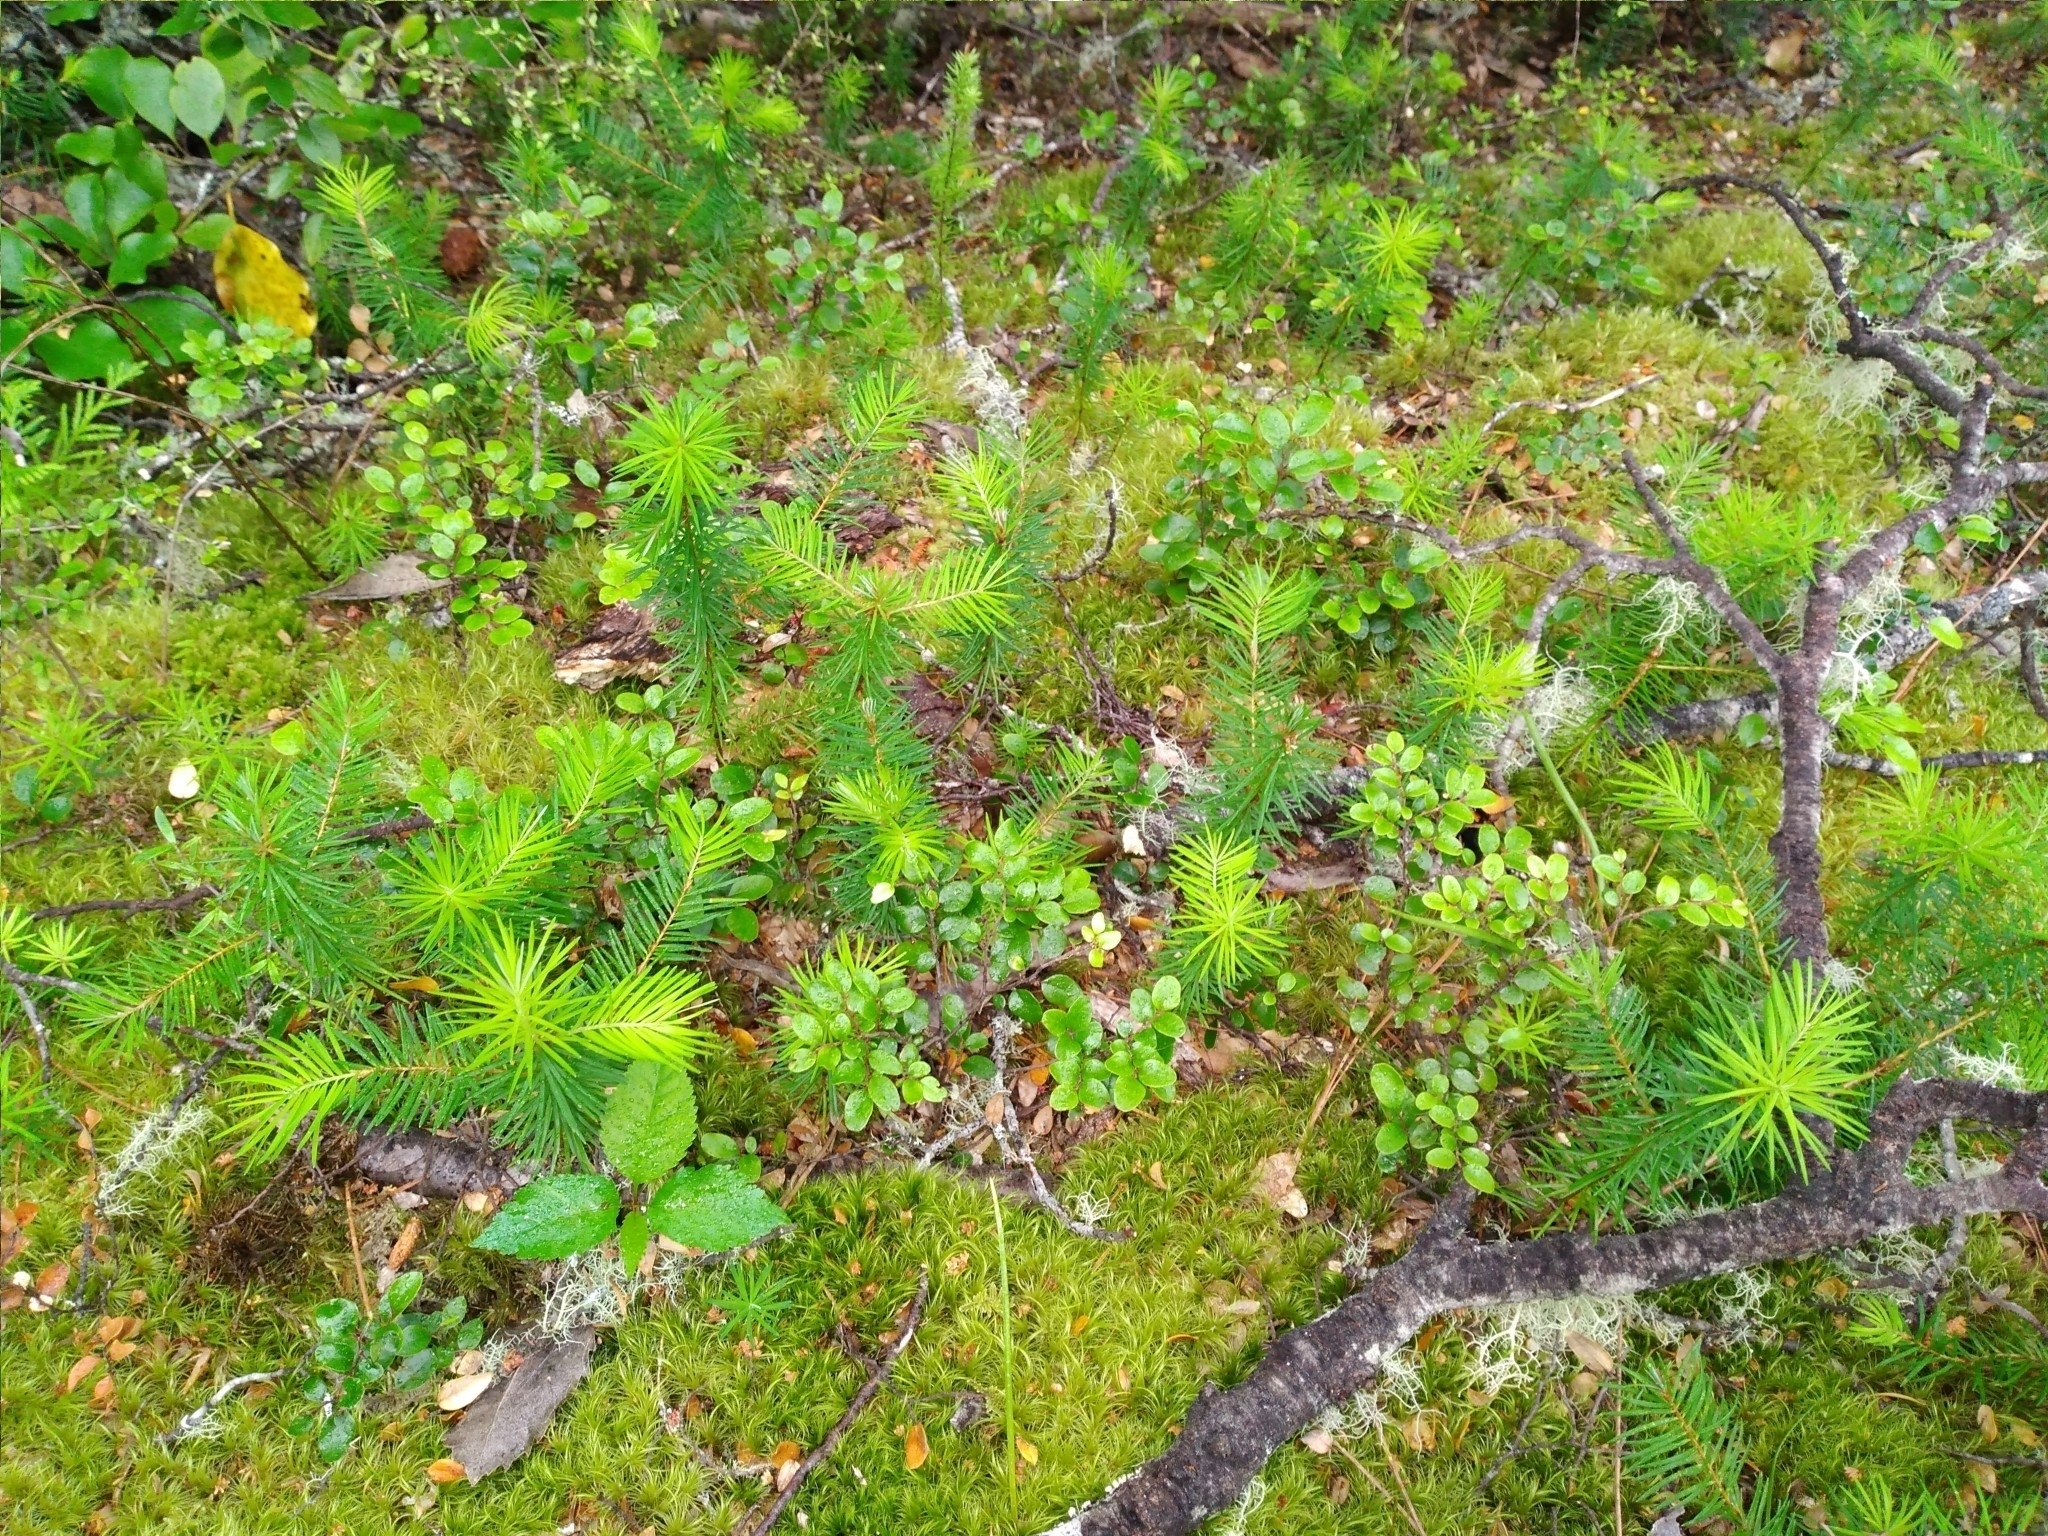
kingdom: Plantae
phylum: Tracheophyta
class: Pinopsida
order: Pinales
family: Pinaceae
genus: Pseudotsuga
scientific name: Pseudotsuga menziesii
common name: Douglas fir
